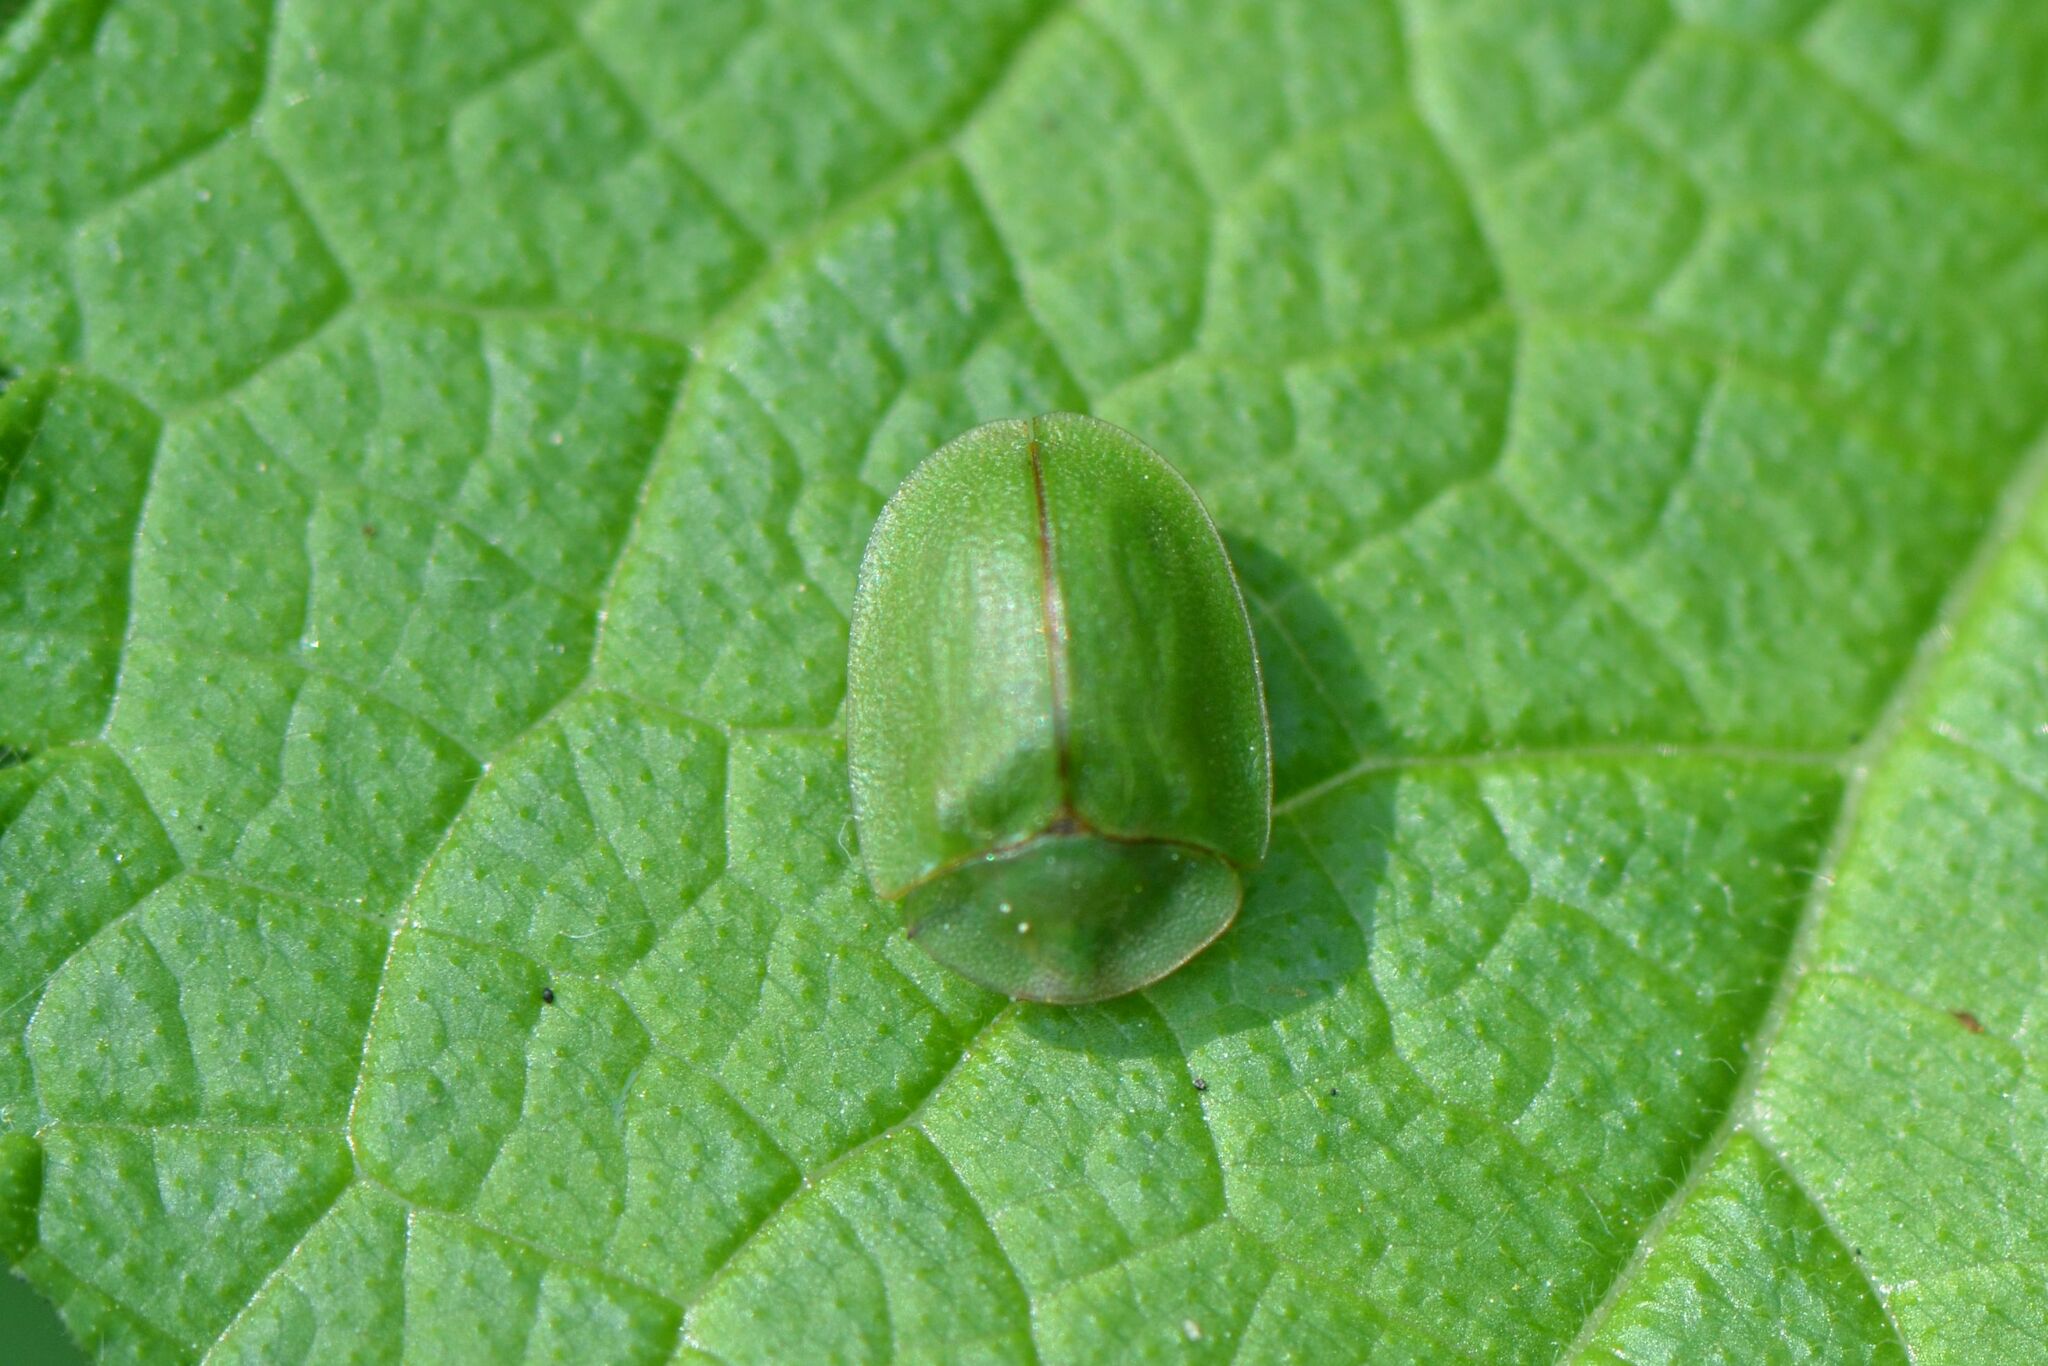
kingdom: Animalia
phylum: Arthropoda
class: Insecta
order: Coleoptera
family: Chrysomelidae
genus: Cassida
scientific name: Cassida viridis
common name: Green tortoise beetle
